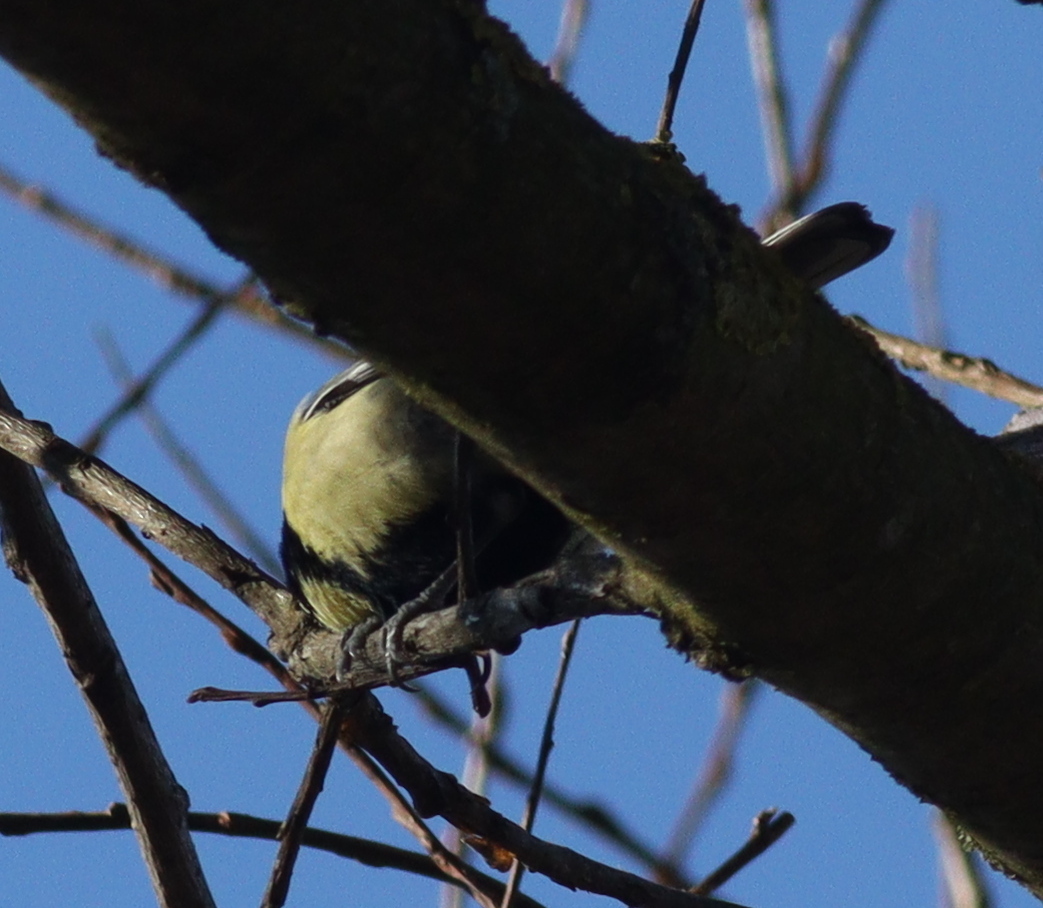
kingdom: Animalia
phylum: Chordata
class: Aves
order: Passeriformes
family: Paridae
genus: Parus
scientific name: Parus major
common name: Great tit
